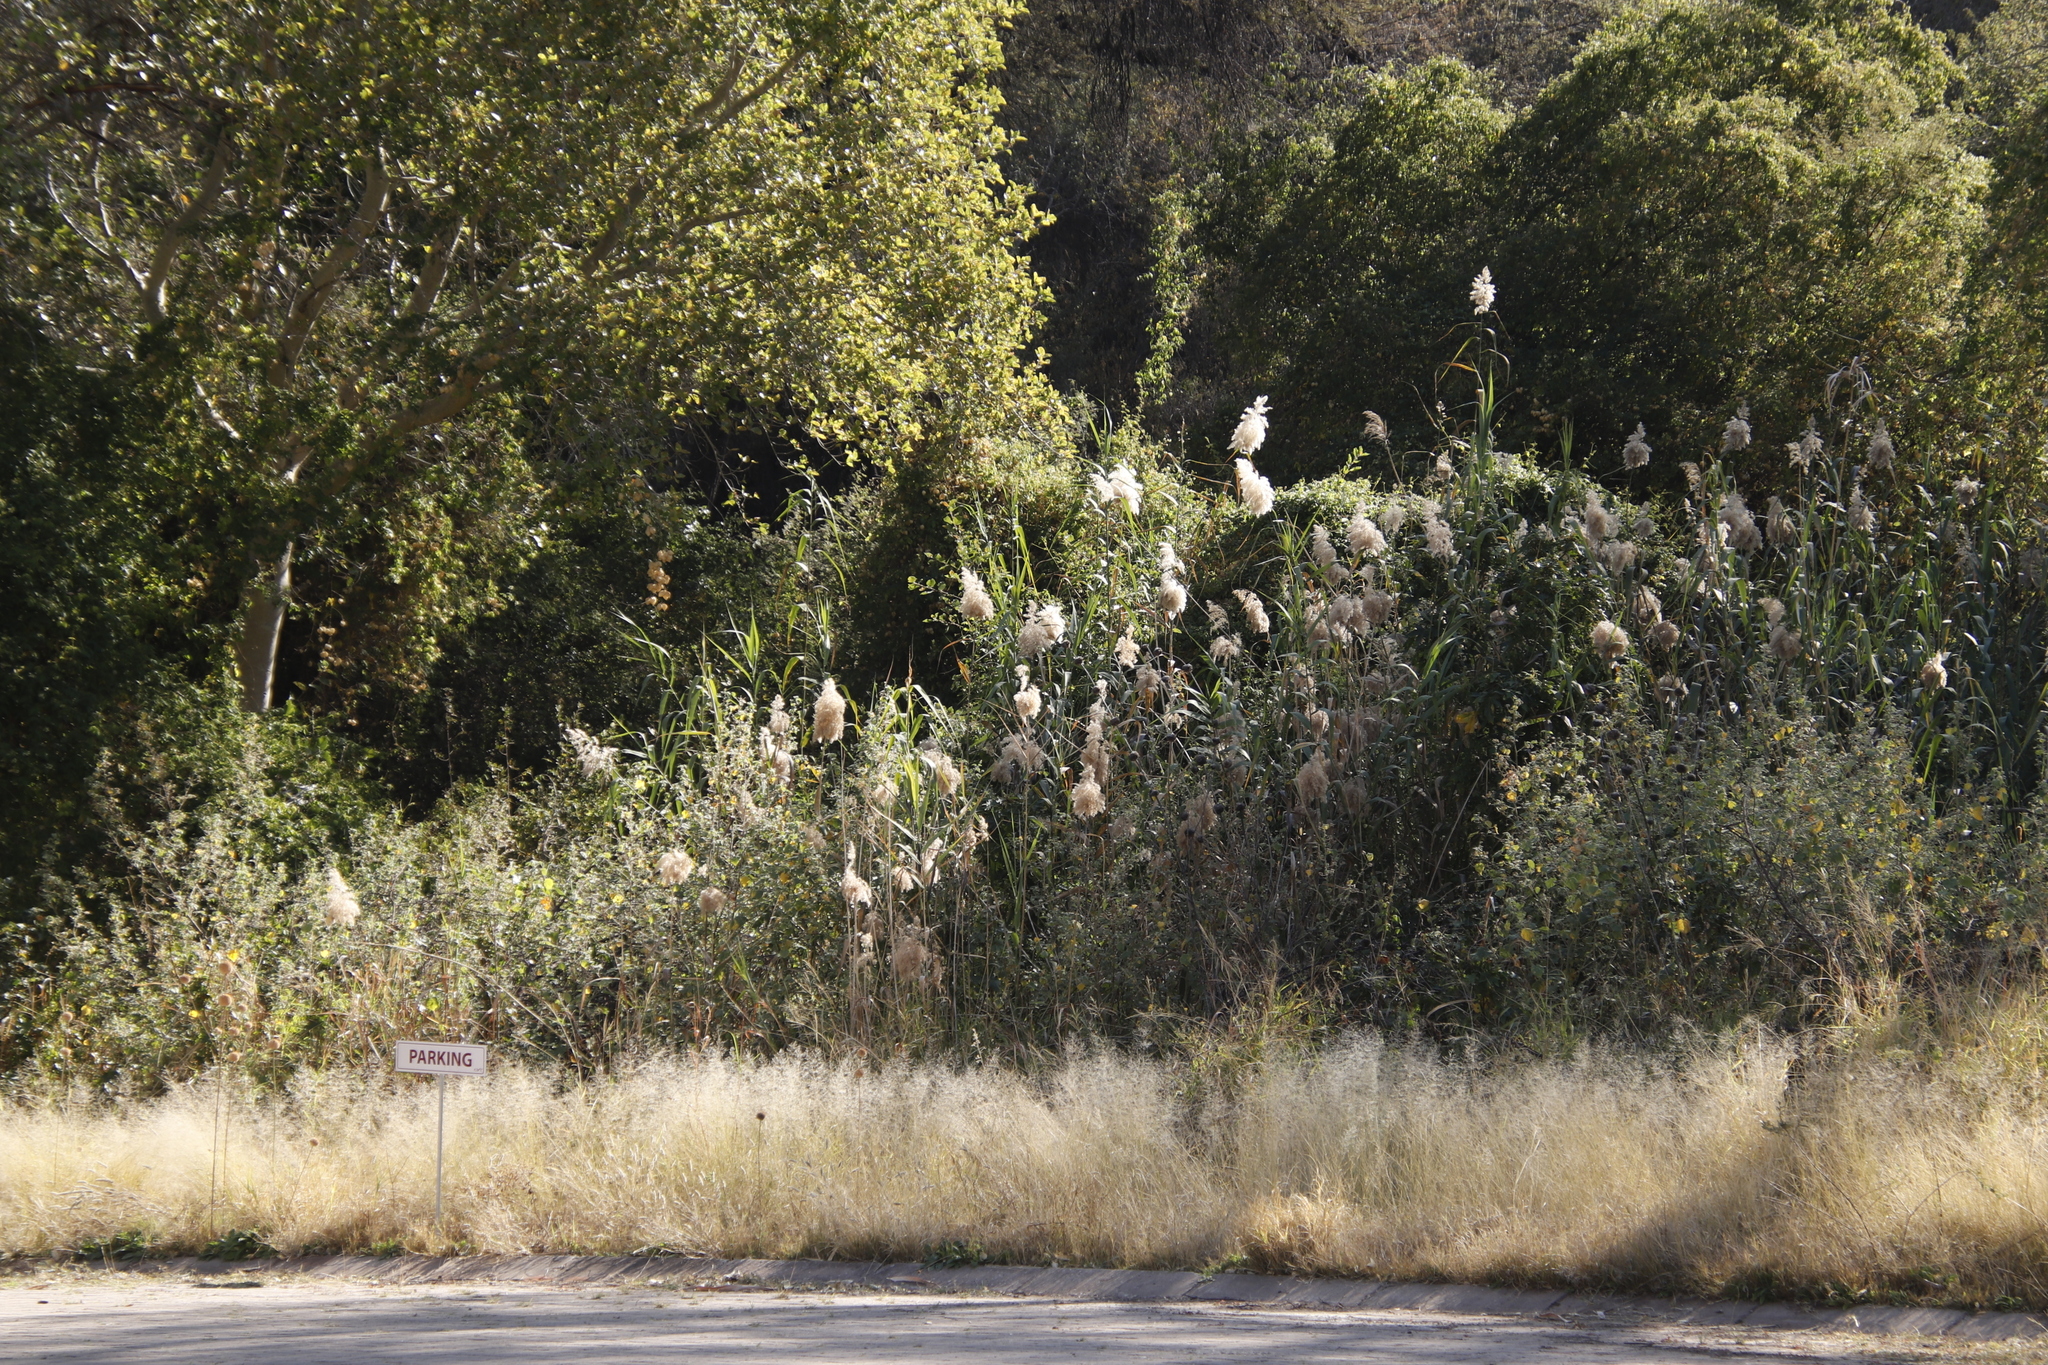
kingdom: Plantae
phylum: Tracheophyta
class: Liliopsida
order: Poales
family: Poaceae
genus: Phragmites
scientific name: Phragmites australis
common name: Common reed
